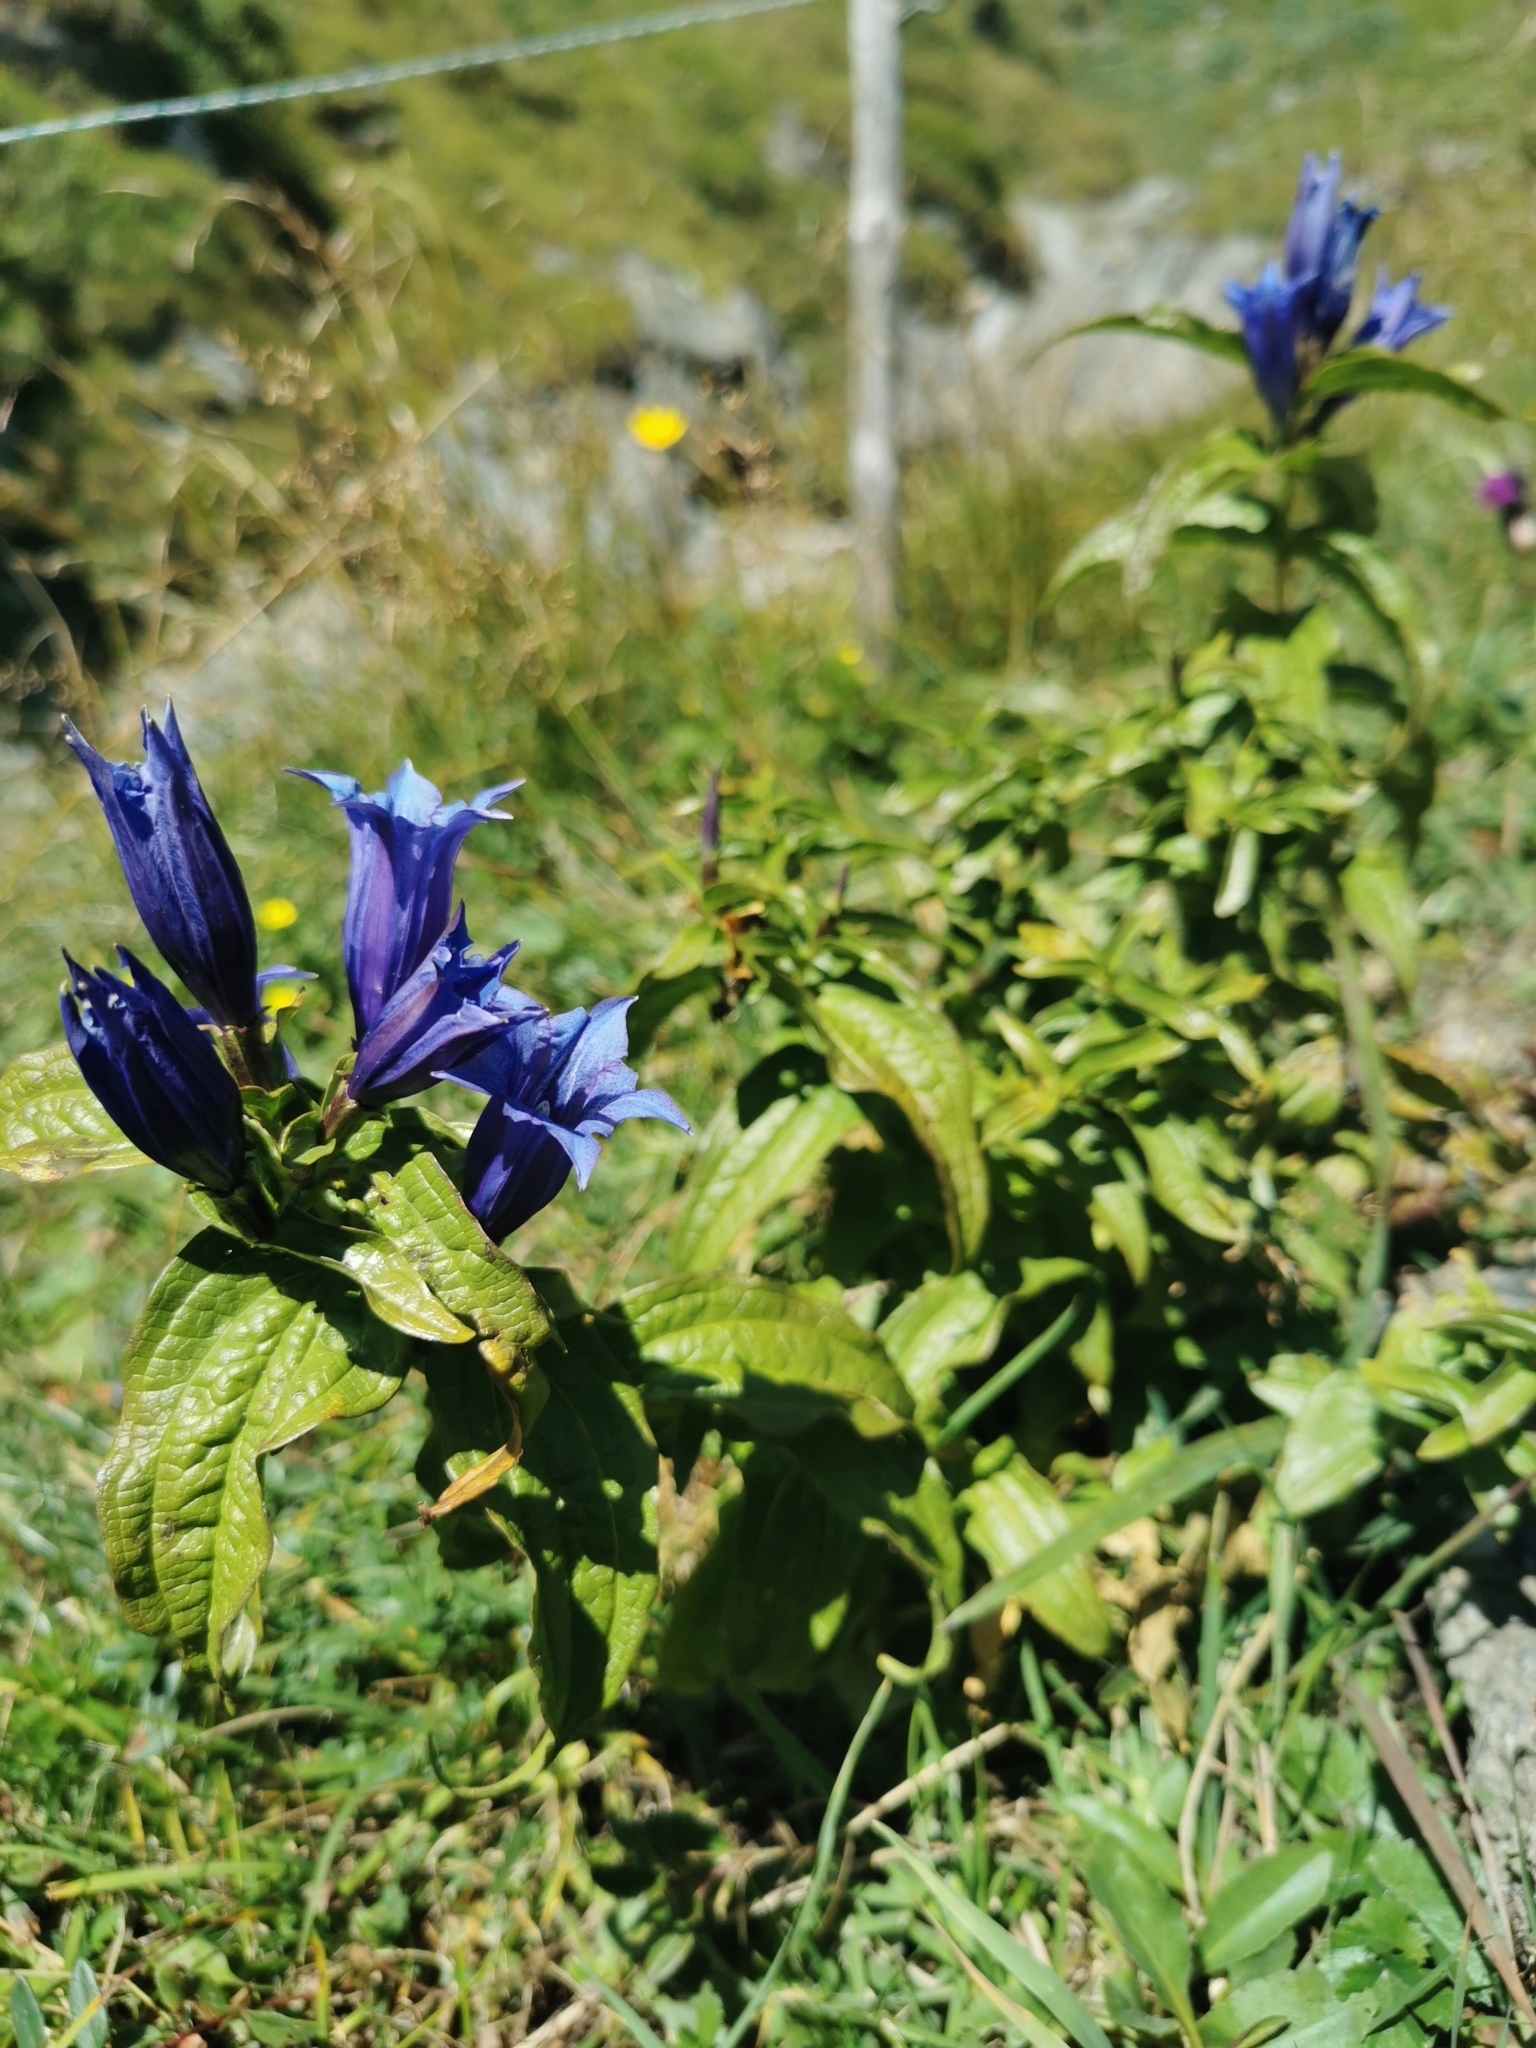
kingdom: Plantae
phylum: Tracheophyta
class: Magnoliopsida
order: Gentianales
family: Gentianaceae
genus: Gentiana
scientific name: Gentiana asclepiadea
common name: Willow gentian
